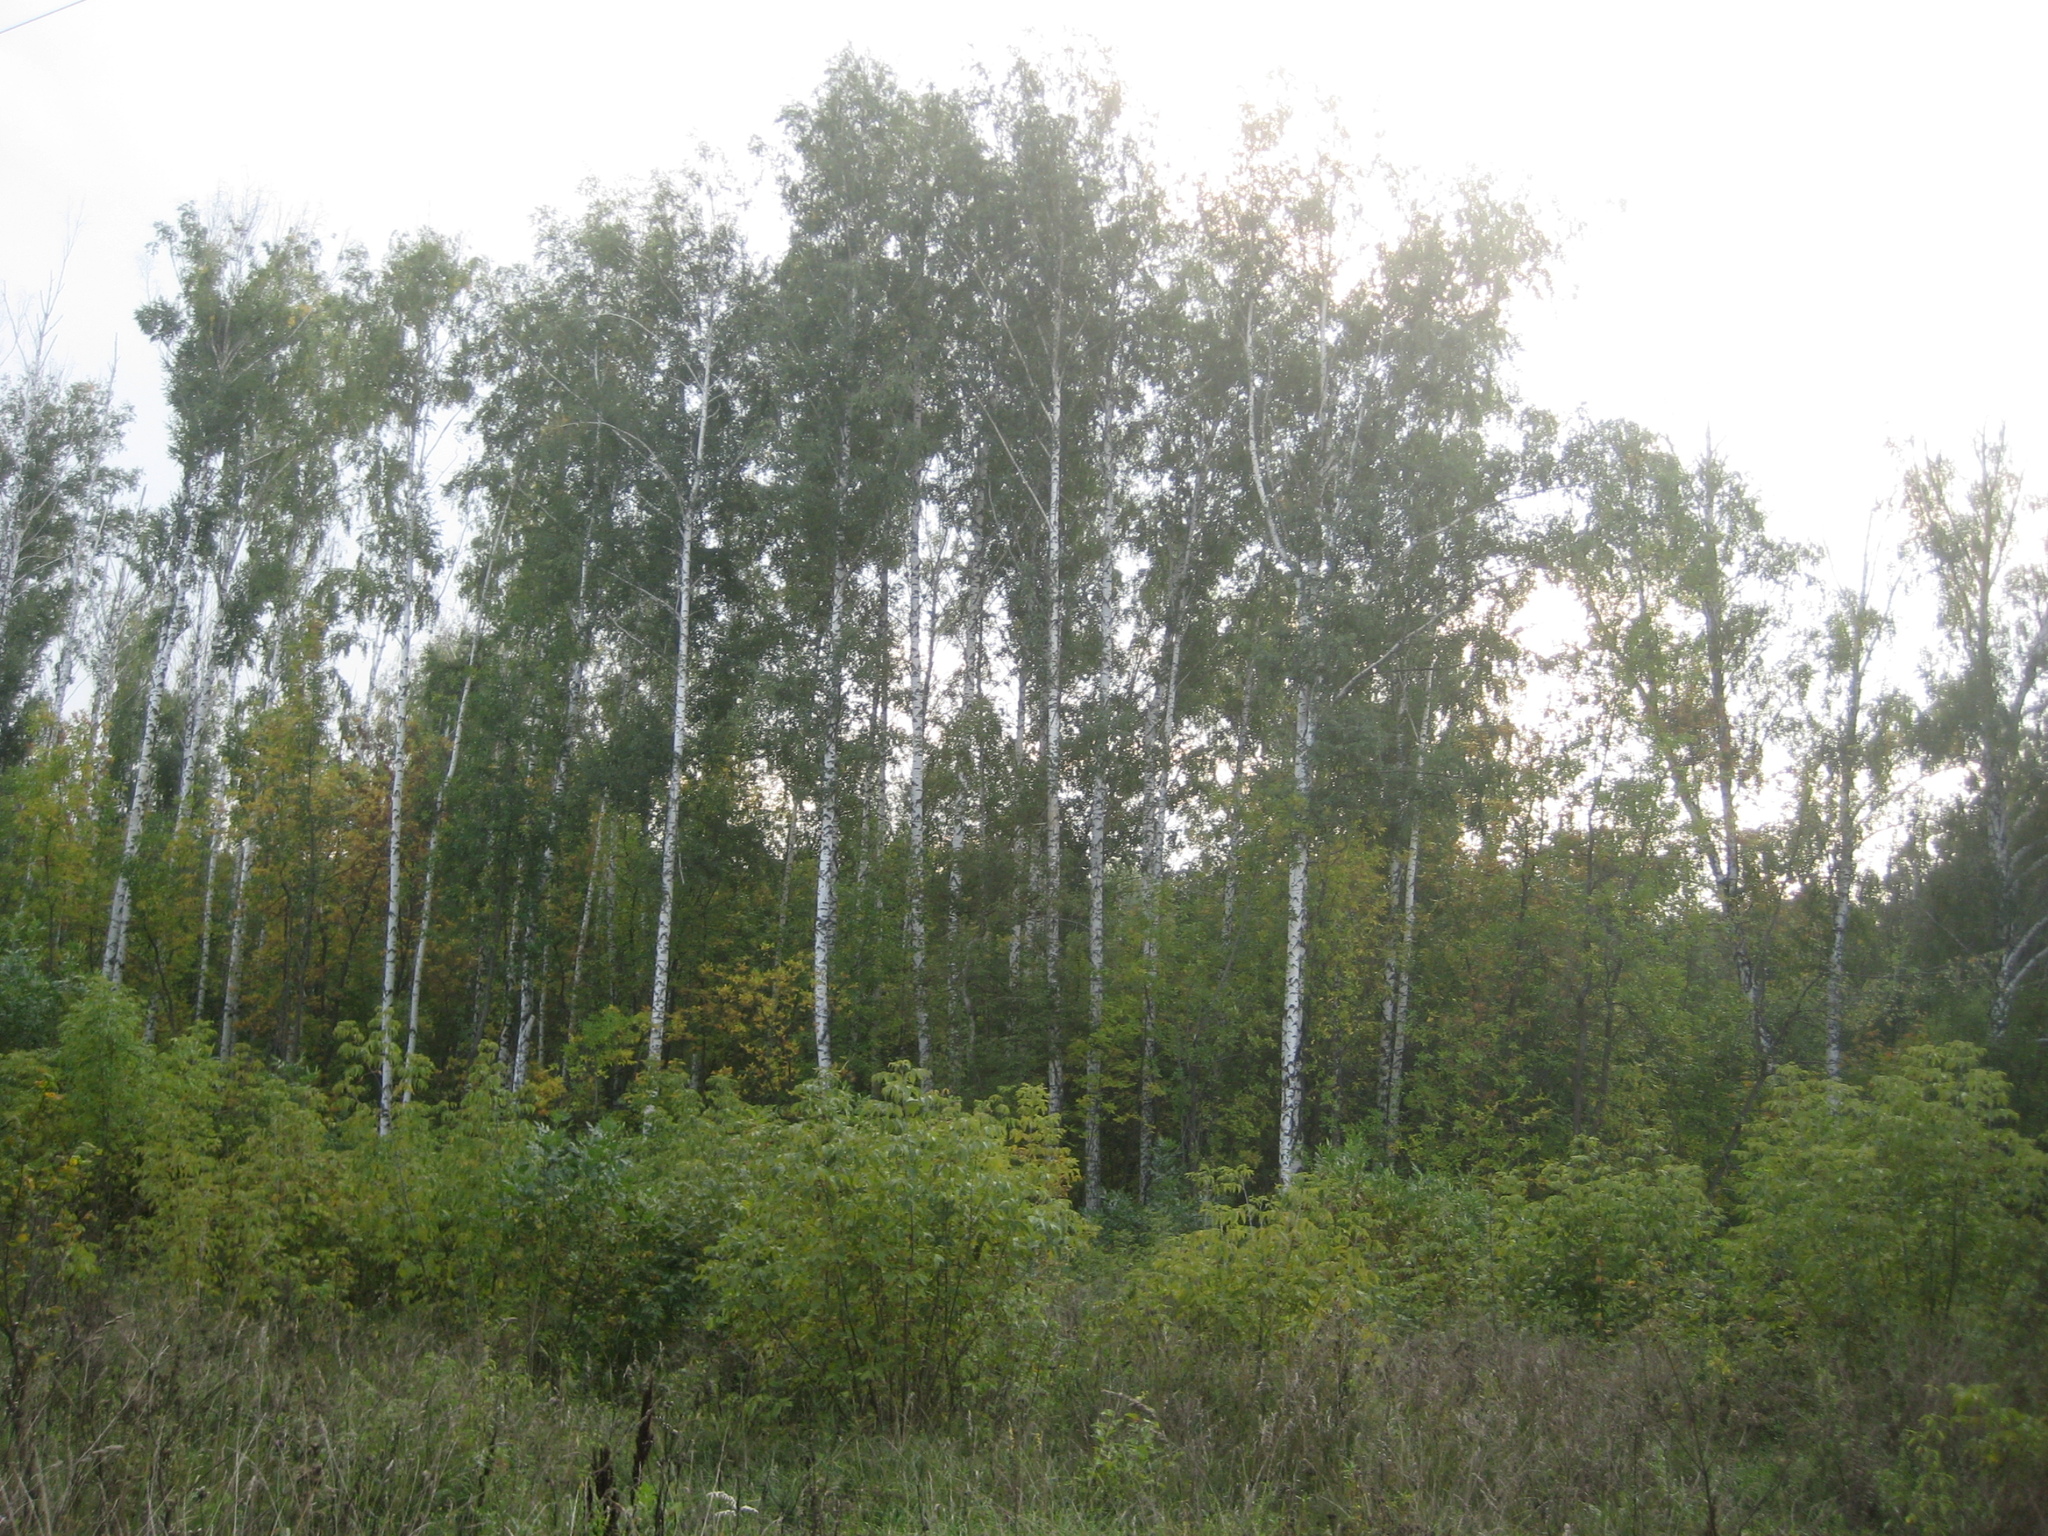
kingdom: Plantae
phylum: Tracheophyta
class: Magnoliopsida
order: Fagales
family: Betulaceae
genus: Betula
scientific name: Betula pendula
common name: Silver birch
